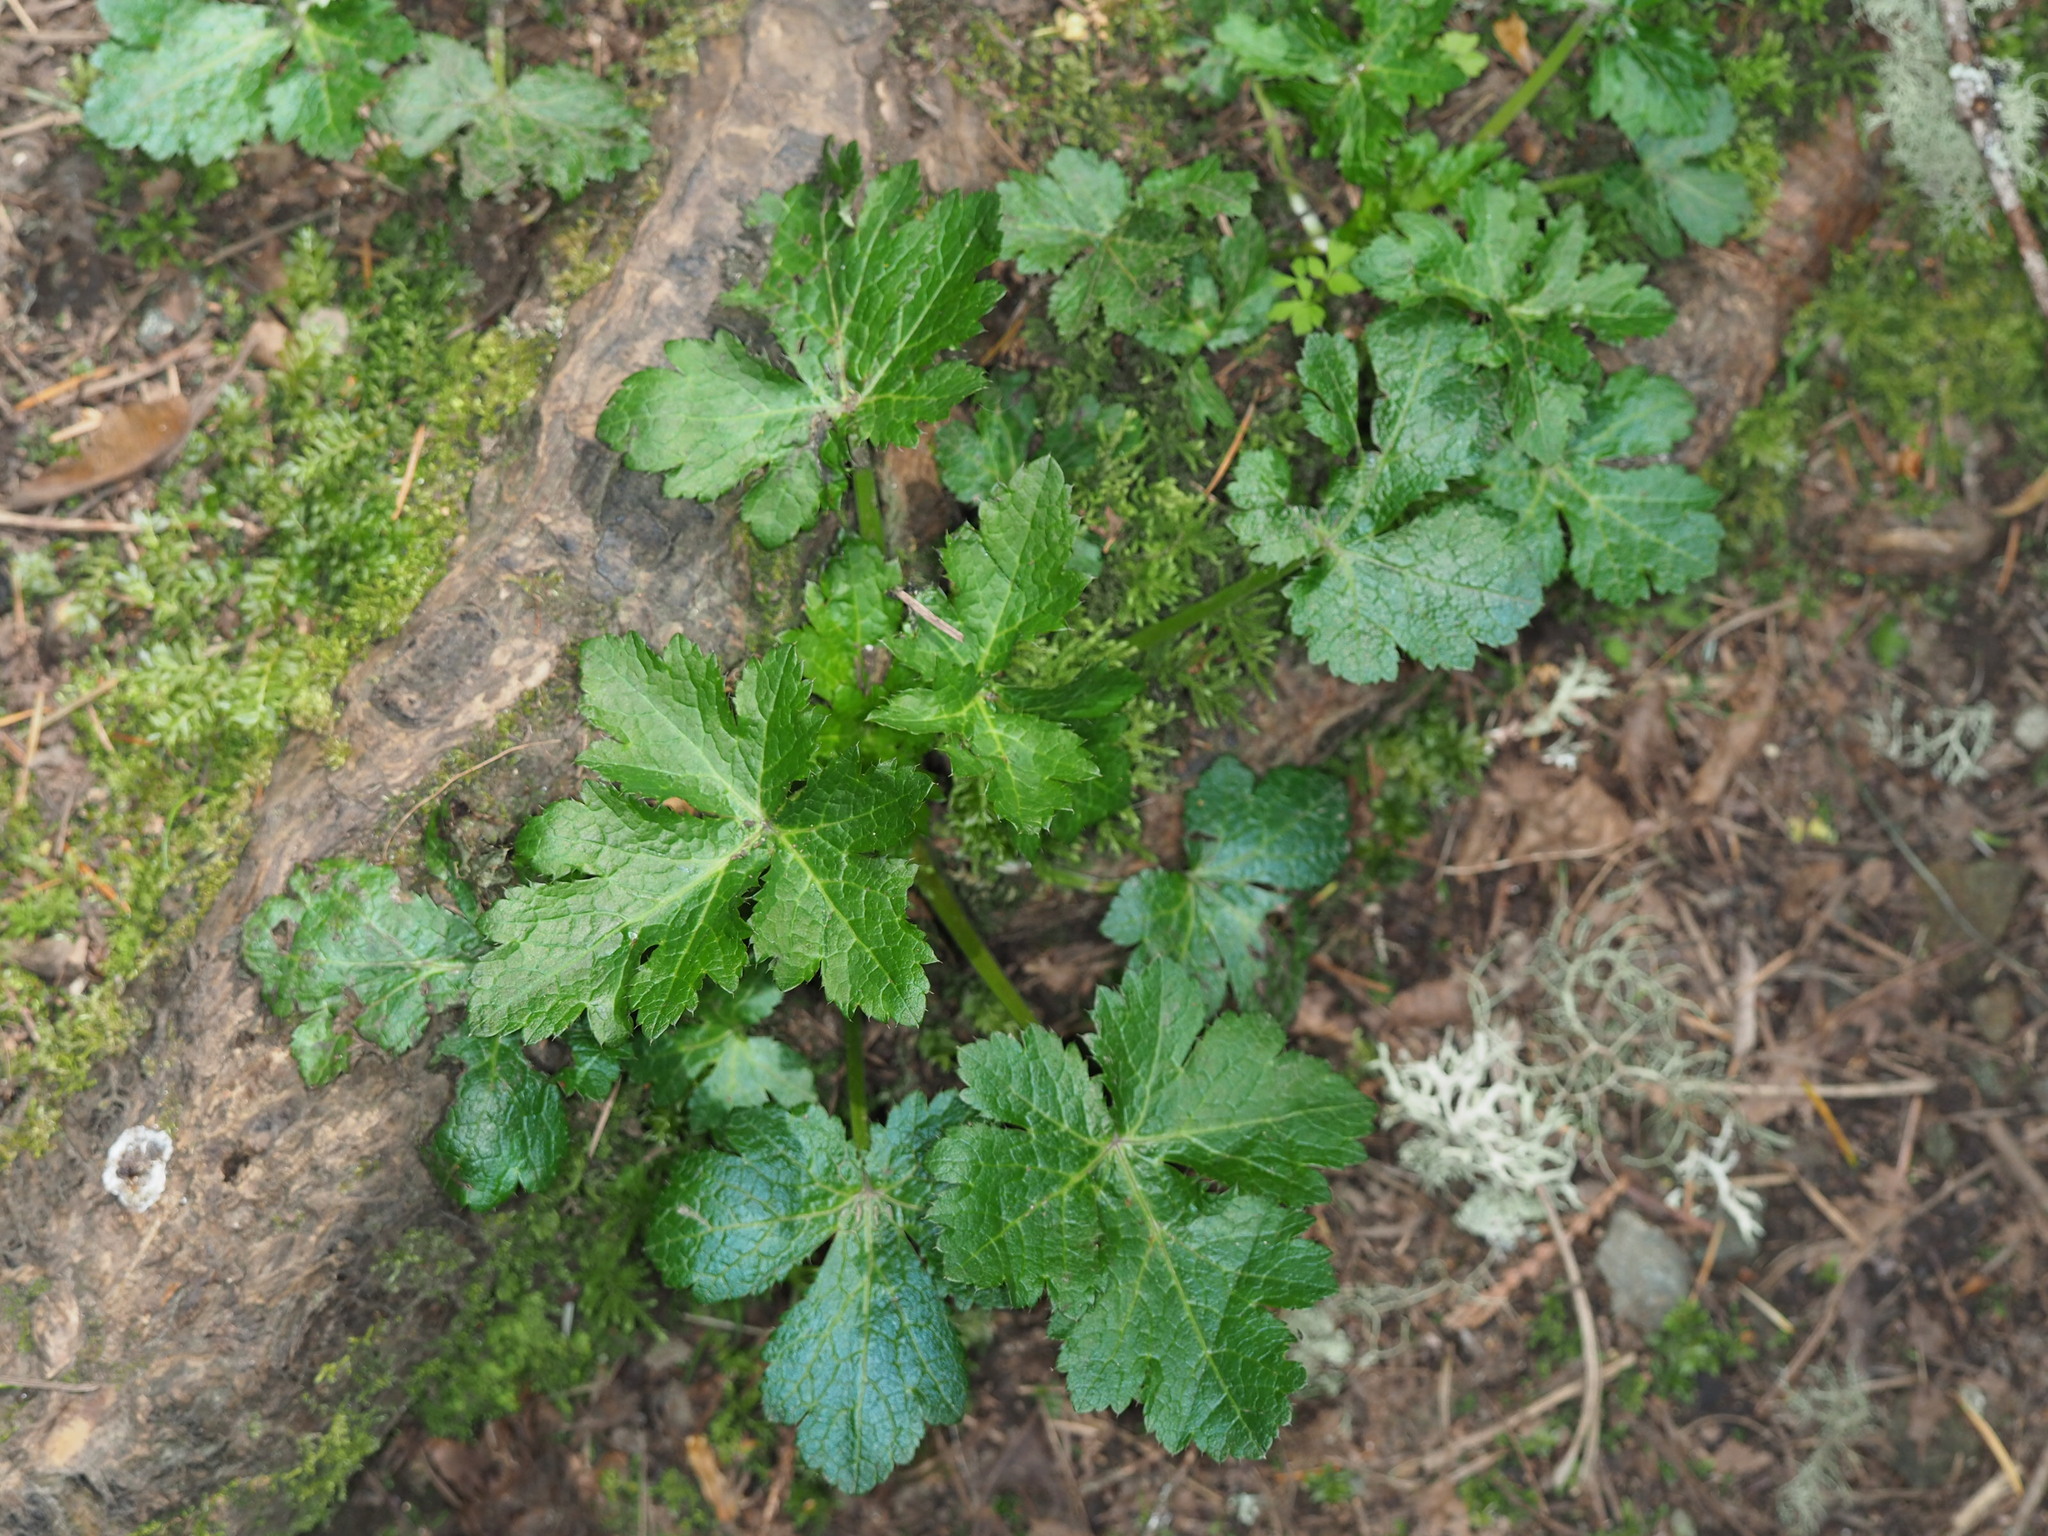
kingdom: Plantae
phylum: Tracheophyta
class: Magnoliopsida
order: Apiales
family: Apiaceae
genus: Sanicula
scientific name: Sanicula crassicaulis
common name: Western snakeroot
